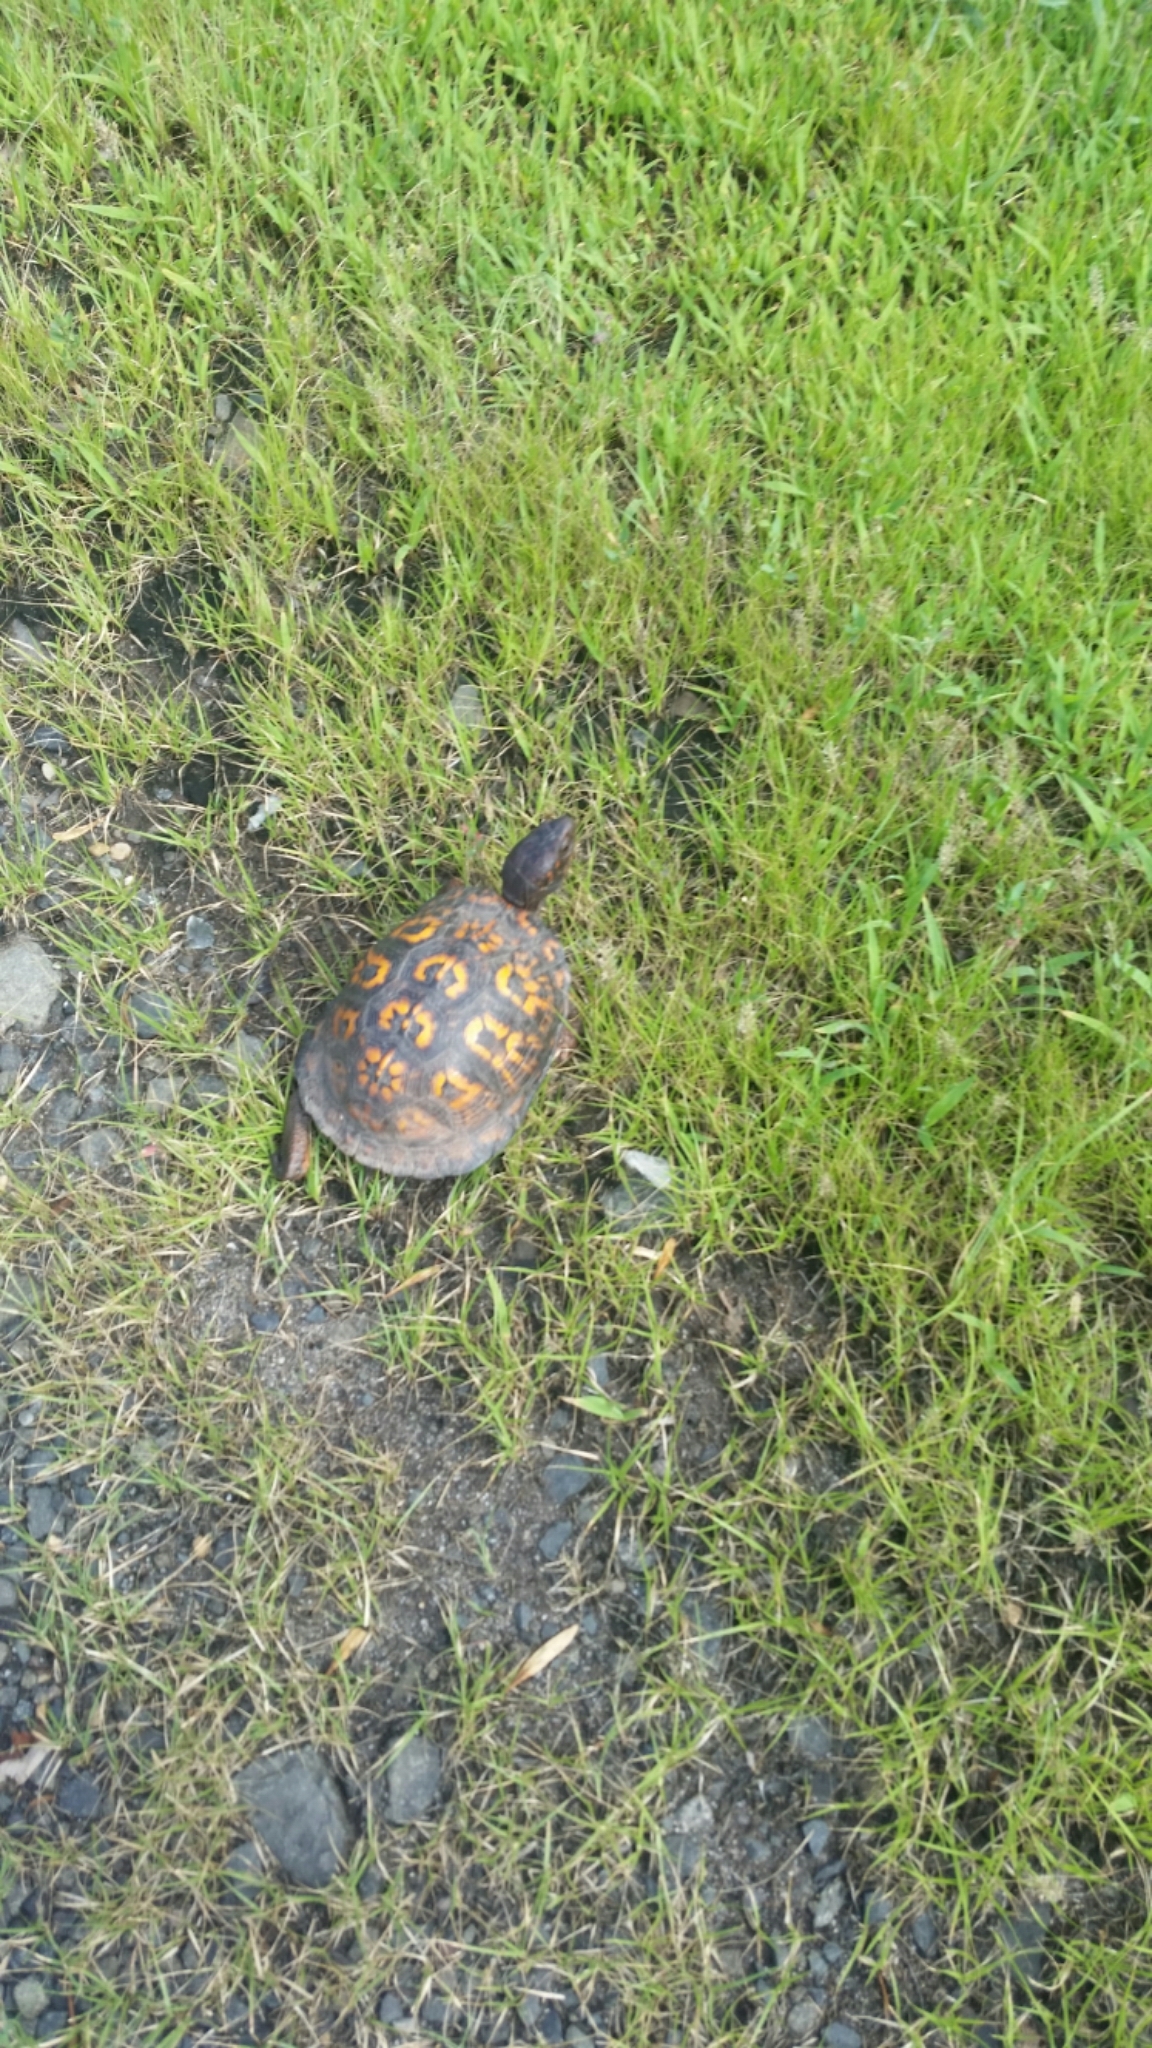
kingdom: Animalia
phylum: Chordata
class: Testudines
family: Emydidae
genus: Terrapene
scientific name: Terrapene carolina
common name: Common box turtle
